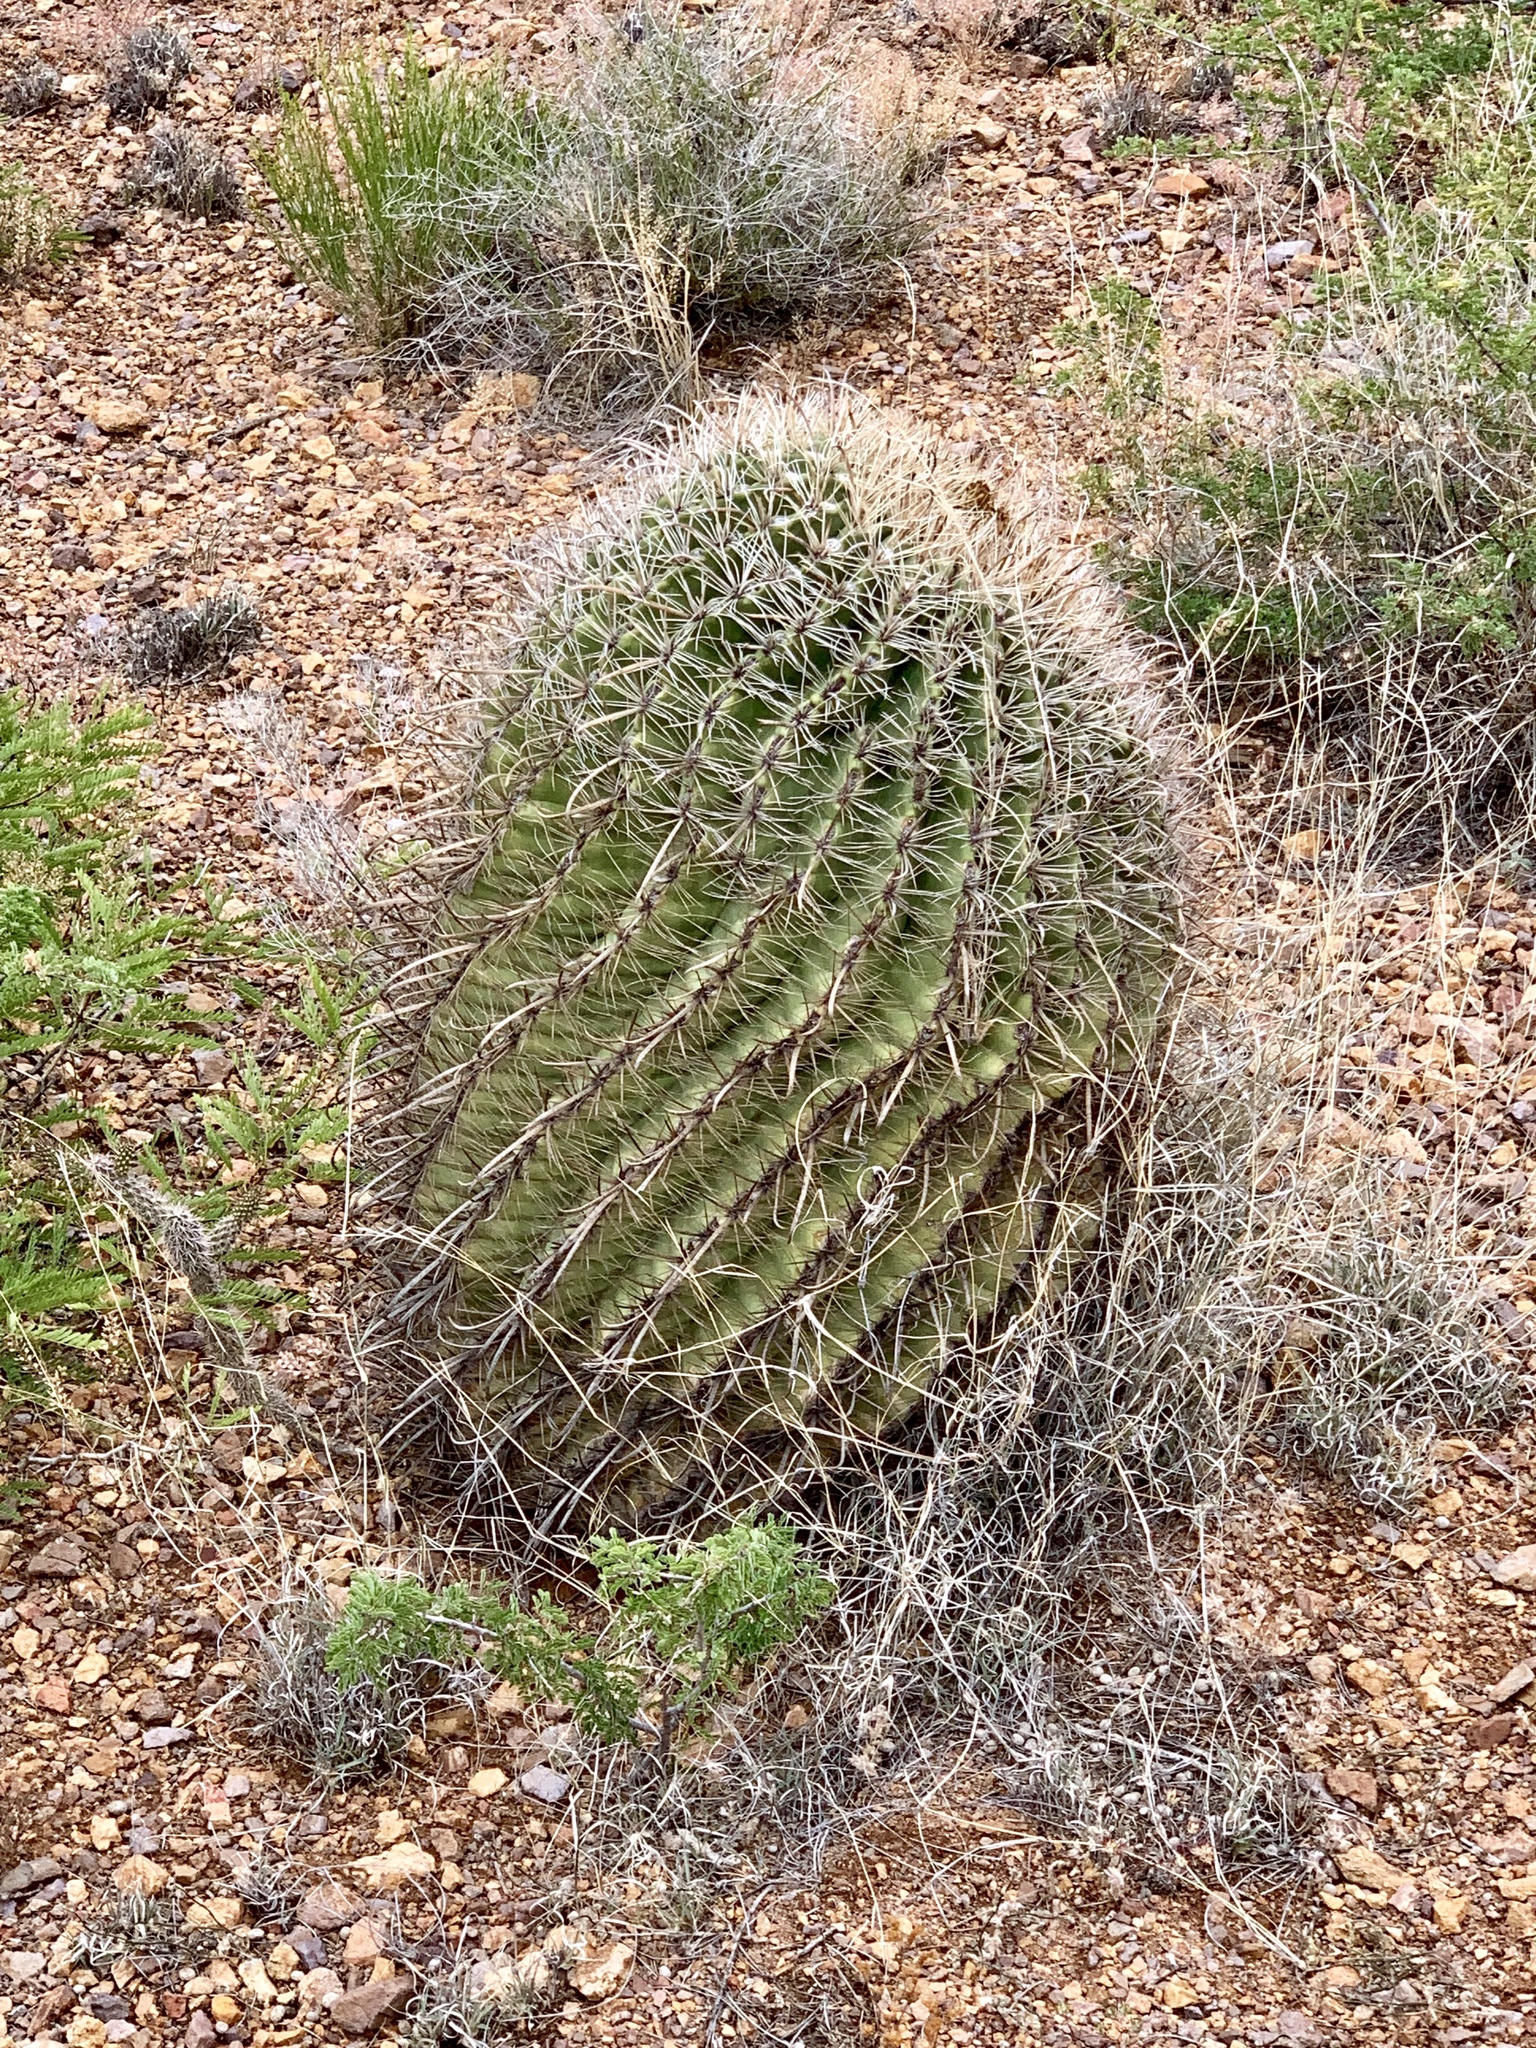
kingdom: Plantae
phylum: Tracheophyta
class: Magnoliopsida
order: Caryophyllales
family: Cactaceae
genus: Ferocactus
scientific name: Ferocactus wislizeni
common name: Candy barrel cactus
